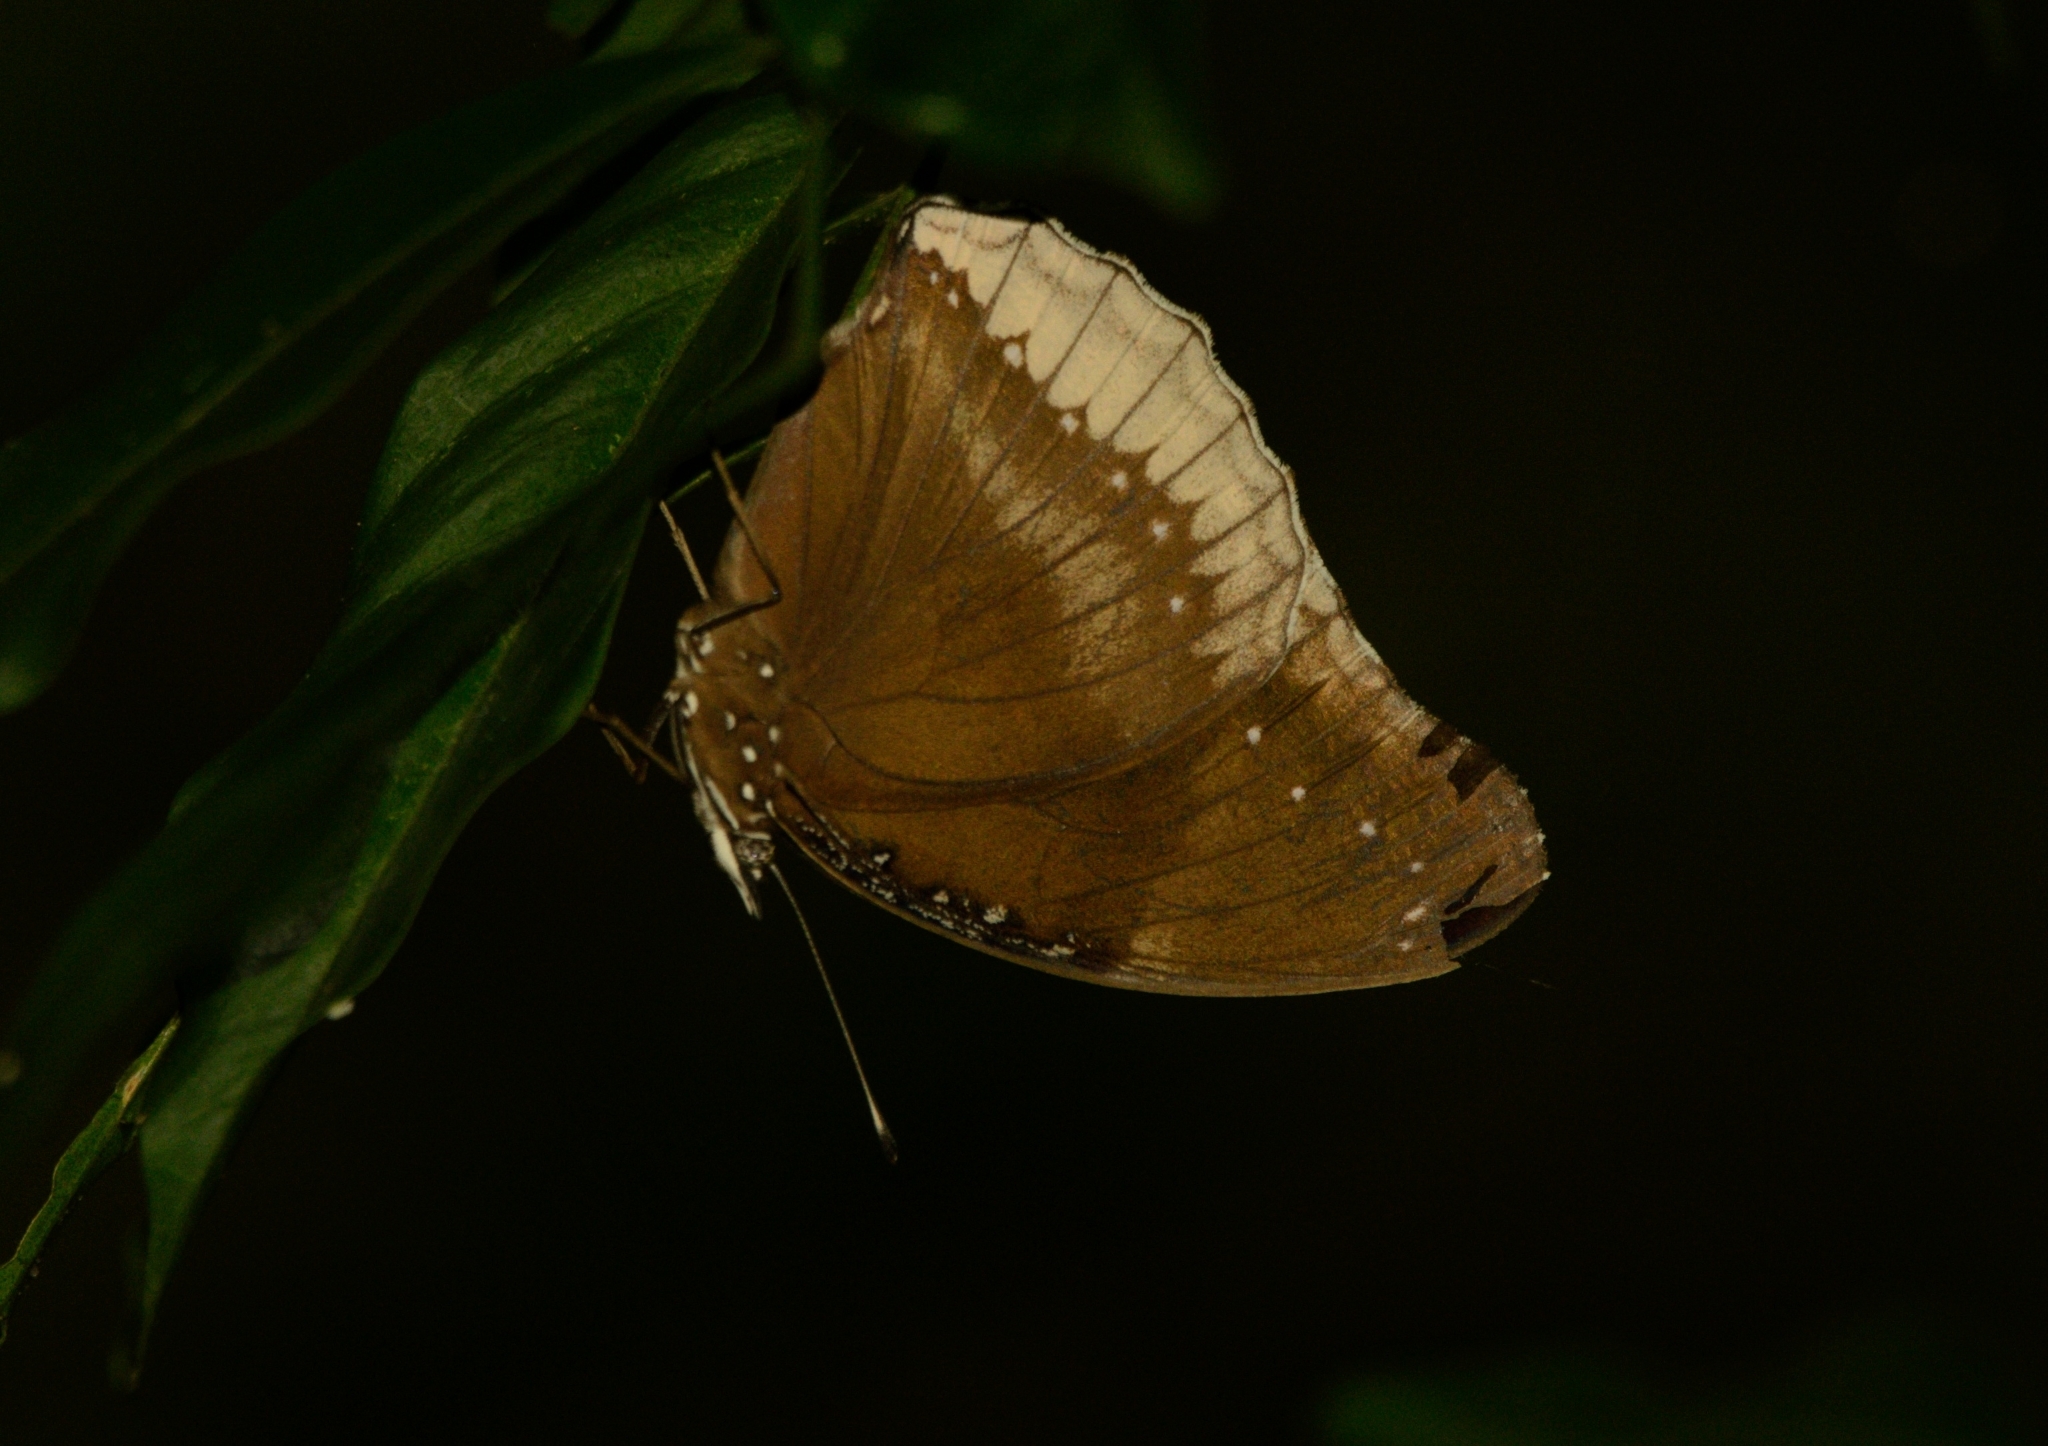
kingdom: Animalia
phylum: Arthropoda
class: Insecta
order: Lepidoptera
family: Nymphalidae
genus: Hypolimnas
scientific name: Hypolimnas bolina
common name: Great eggfly
